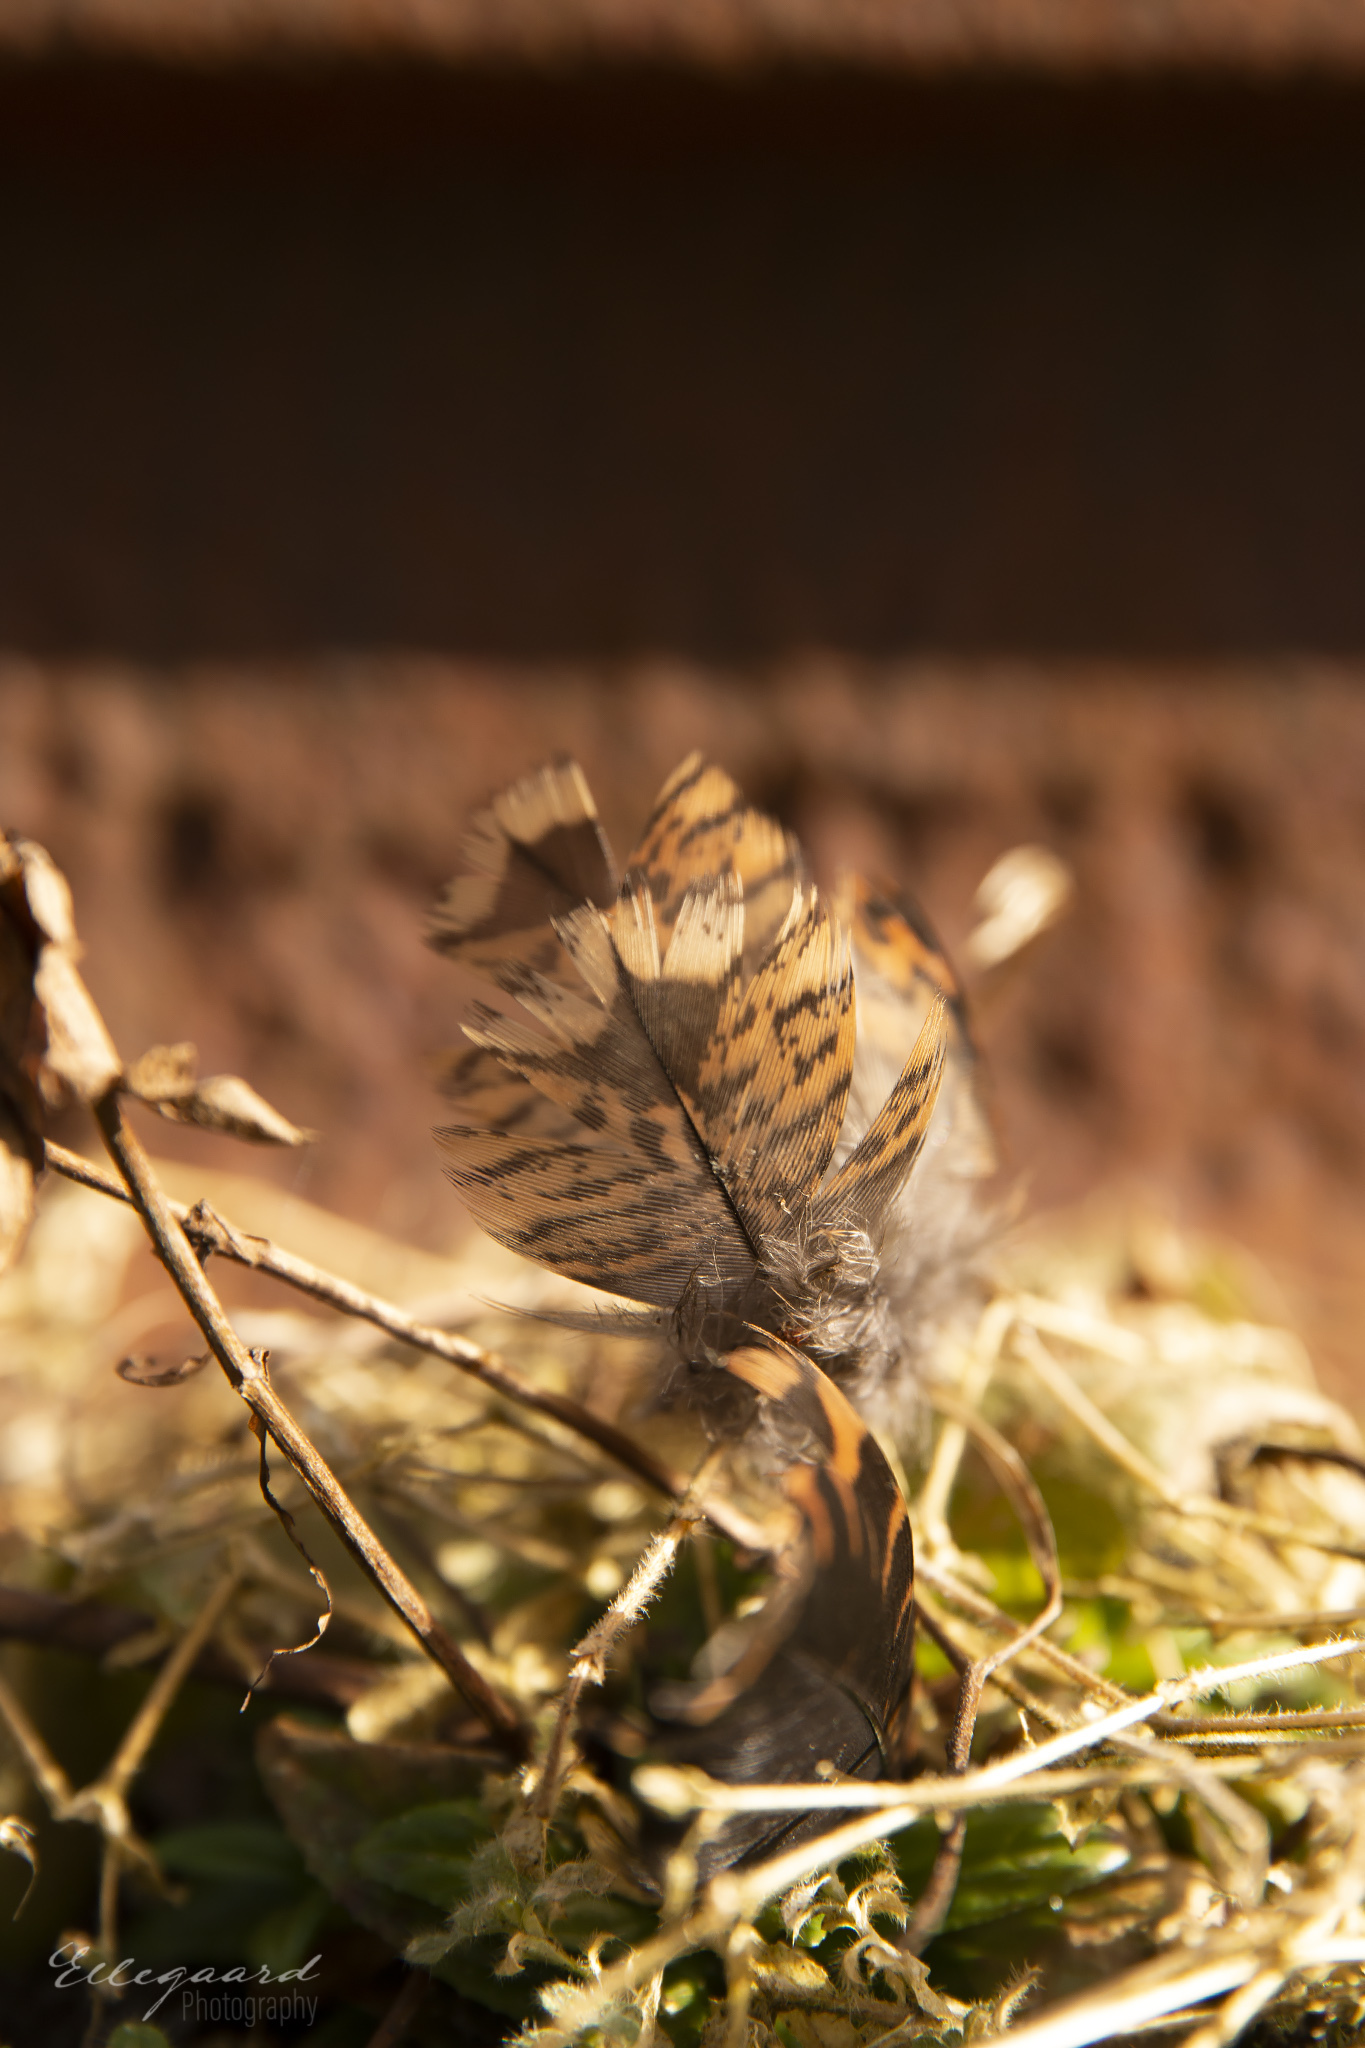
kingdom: Animalia
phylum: Chordata
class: Aves
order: Charadriiformes
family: Scolopacidae
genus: Scolopax
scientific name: Scolopax rusticola
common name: Eurasian woodcock
